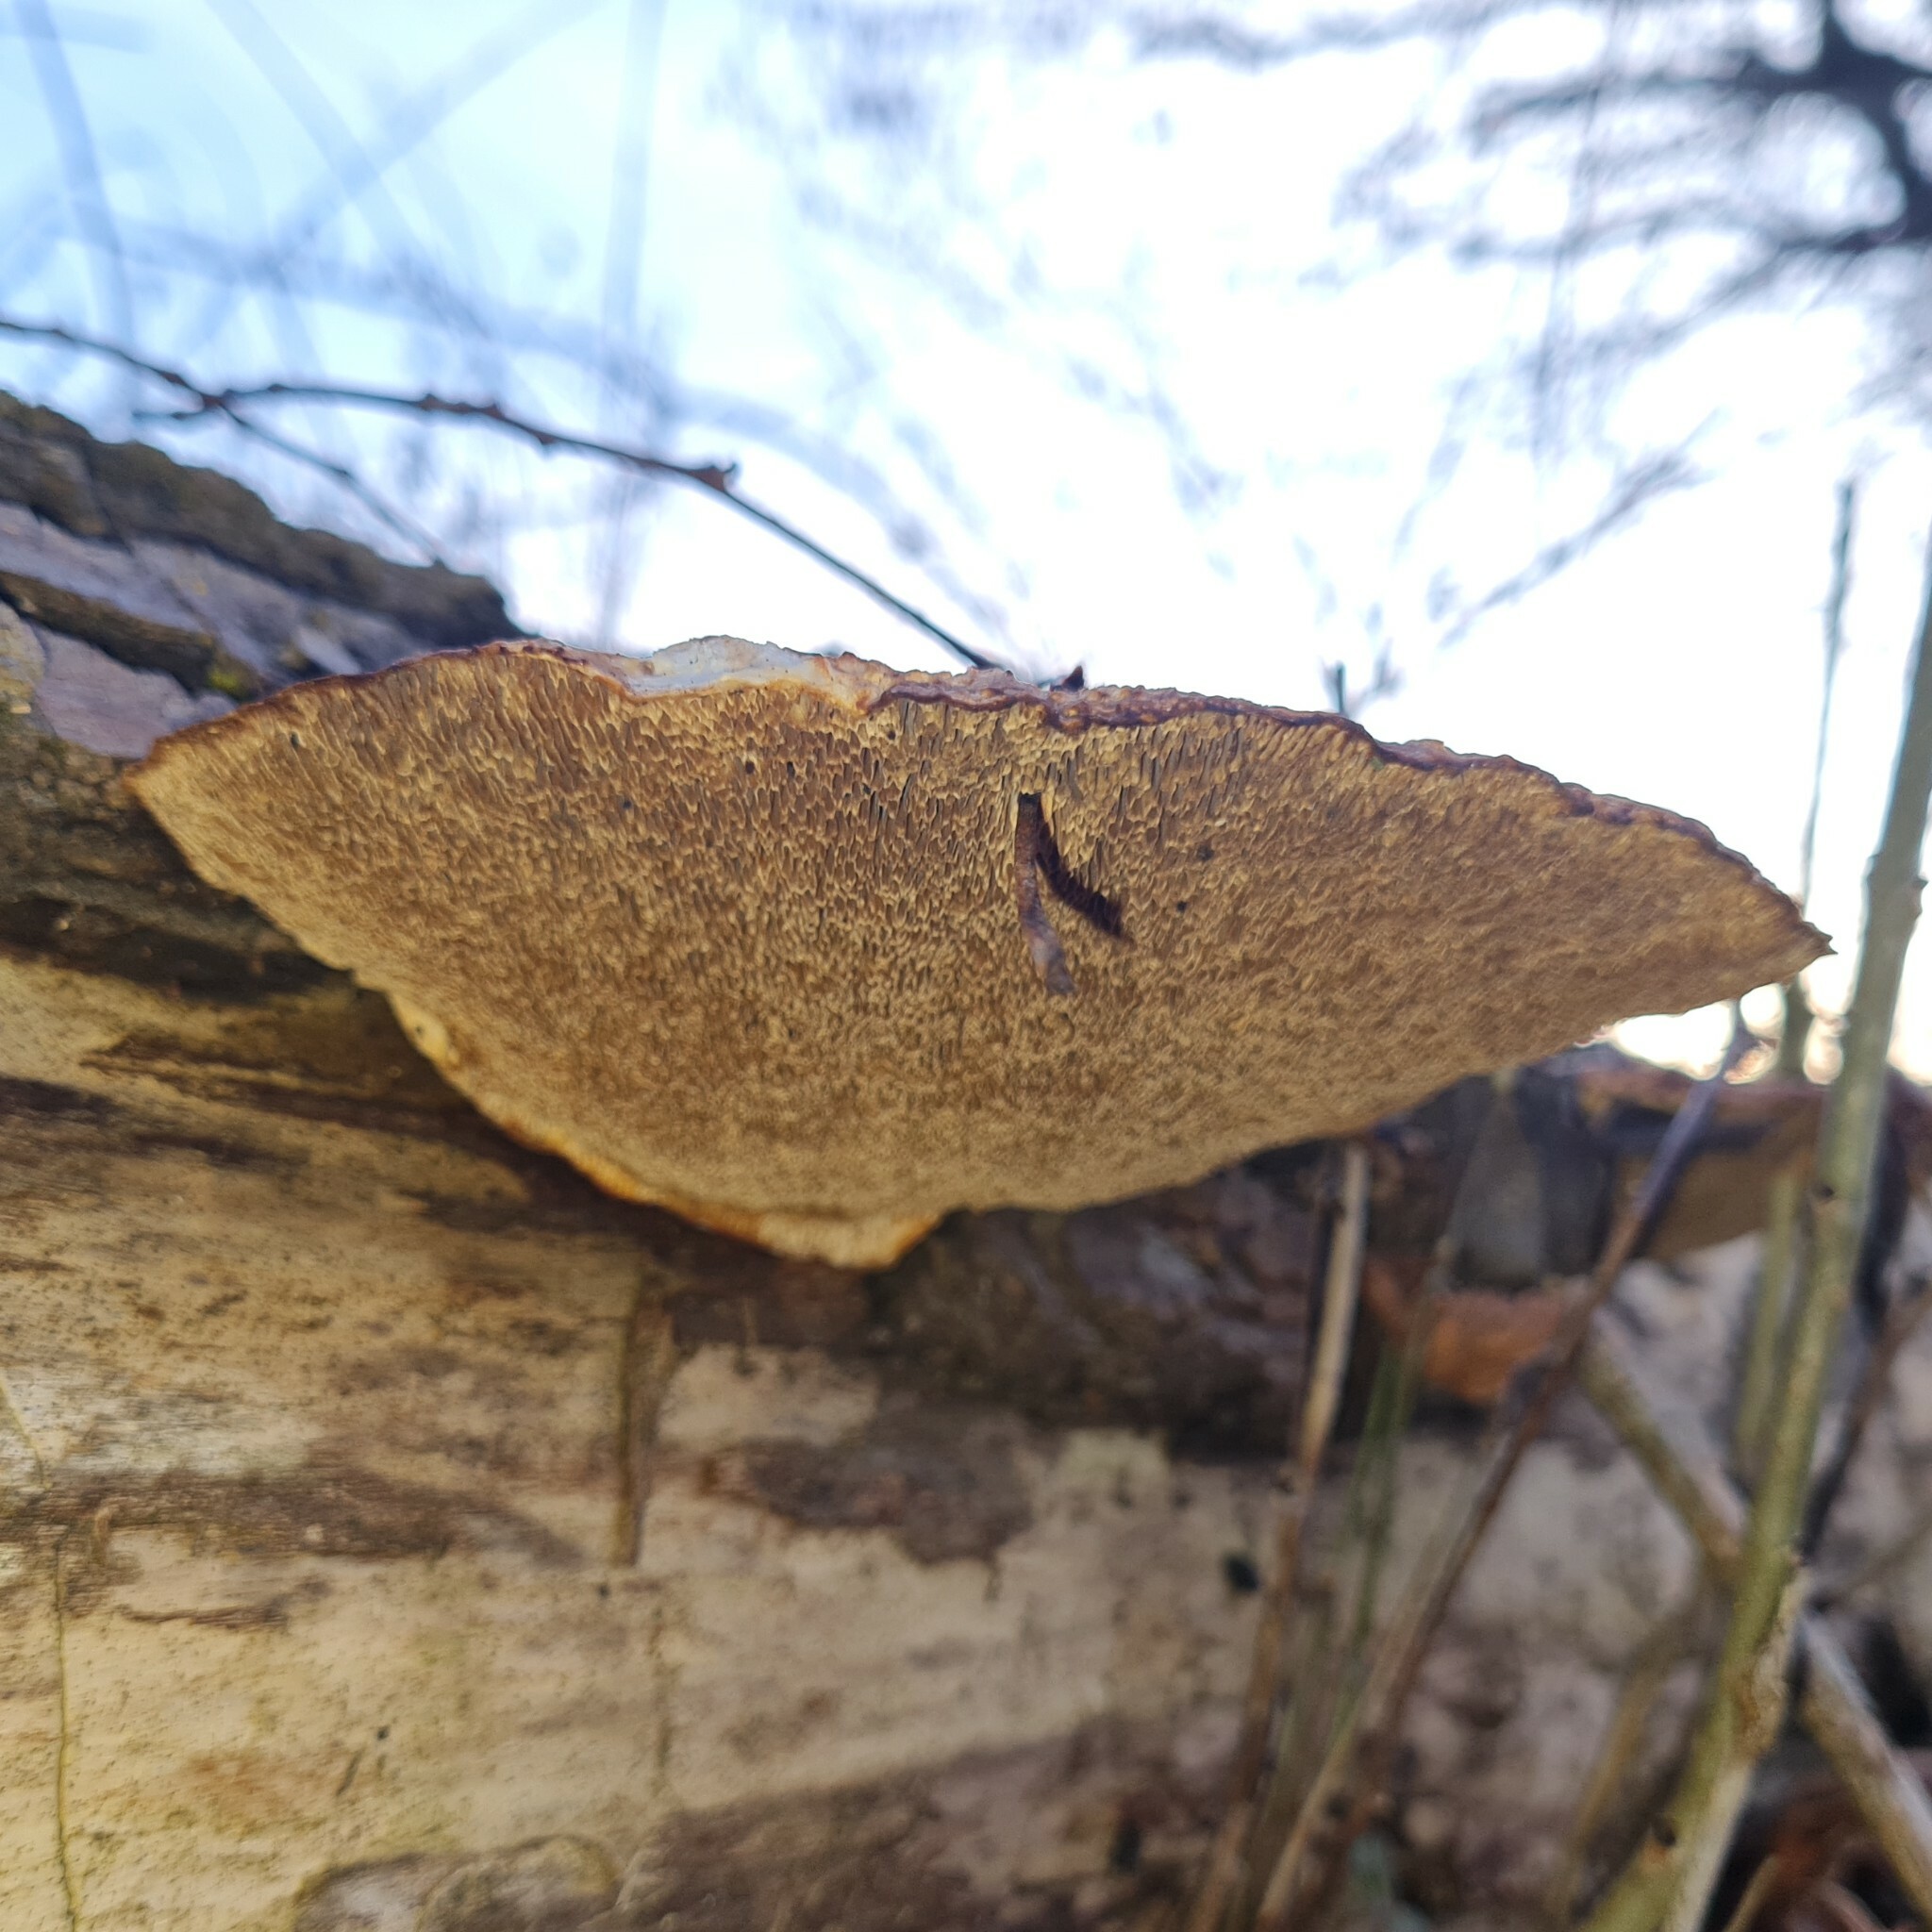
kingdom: Fungi
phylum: Basidiomycota
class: Agaricomycetes
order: Polyporales
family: Polyporaceae
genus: Daedaleopsis
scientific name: Daedaleopsis confragosa
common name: Blushing bracket
